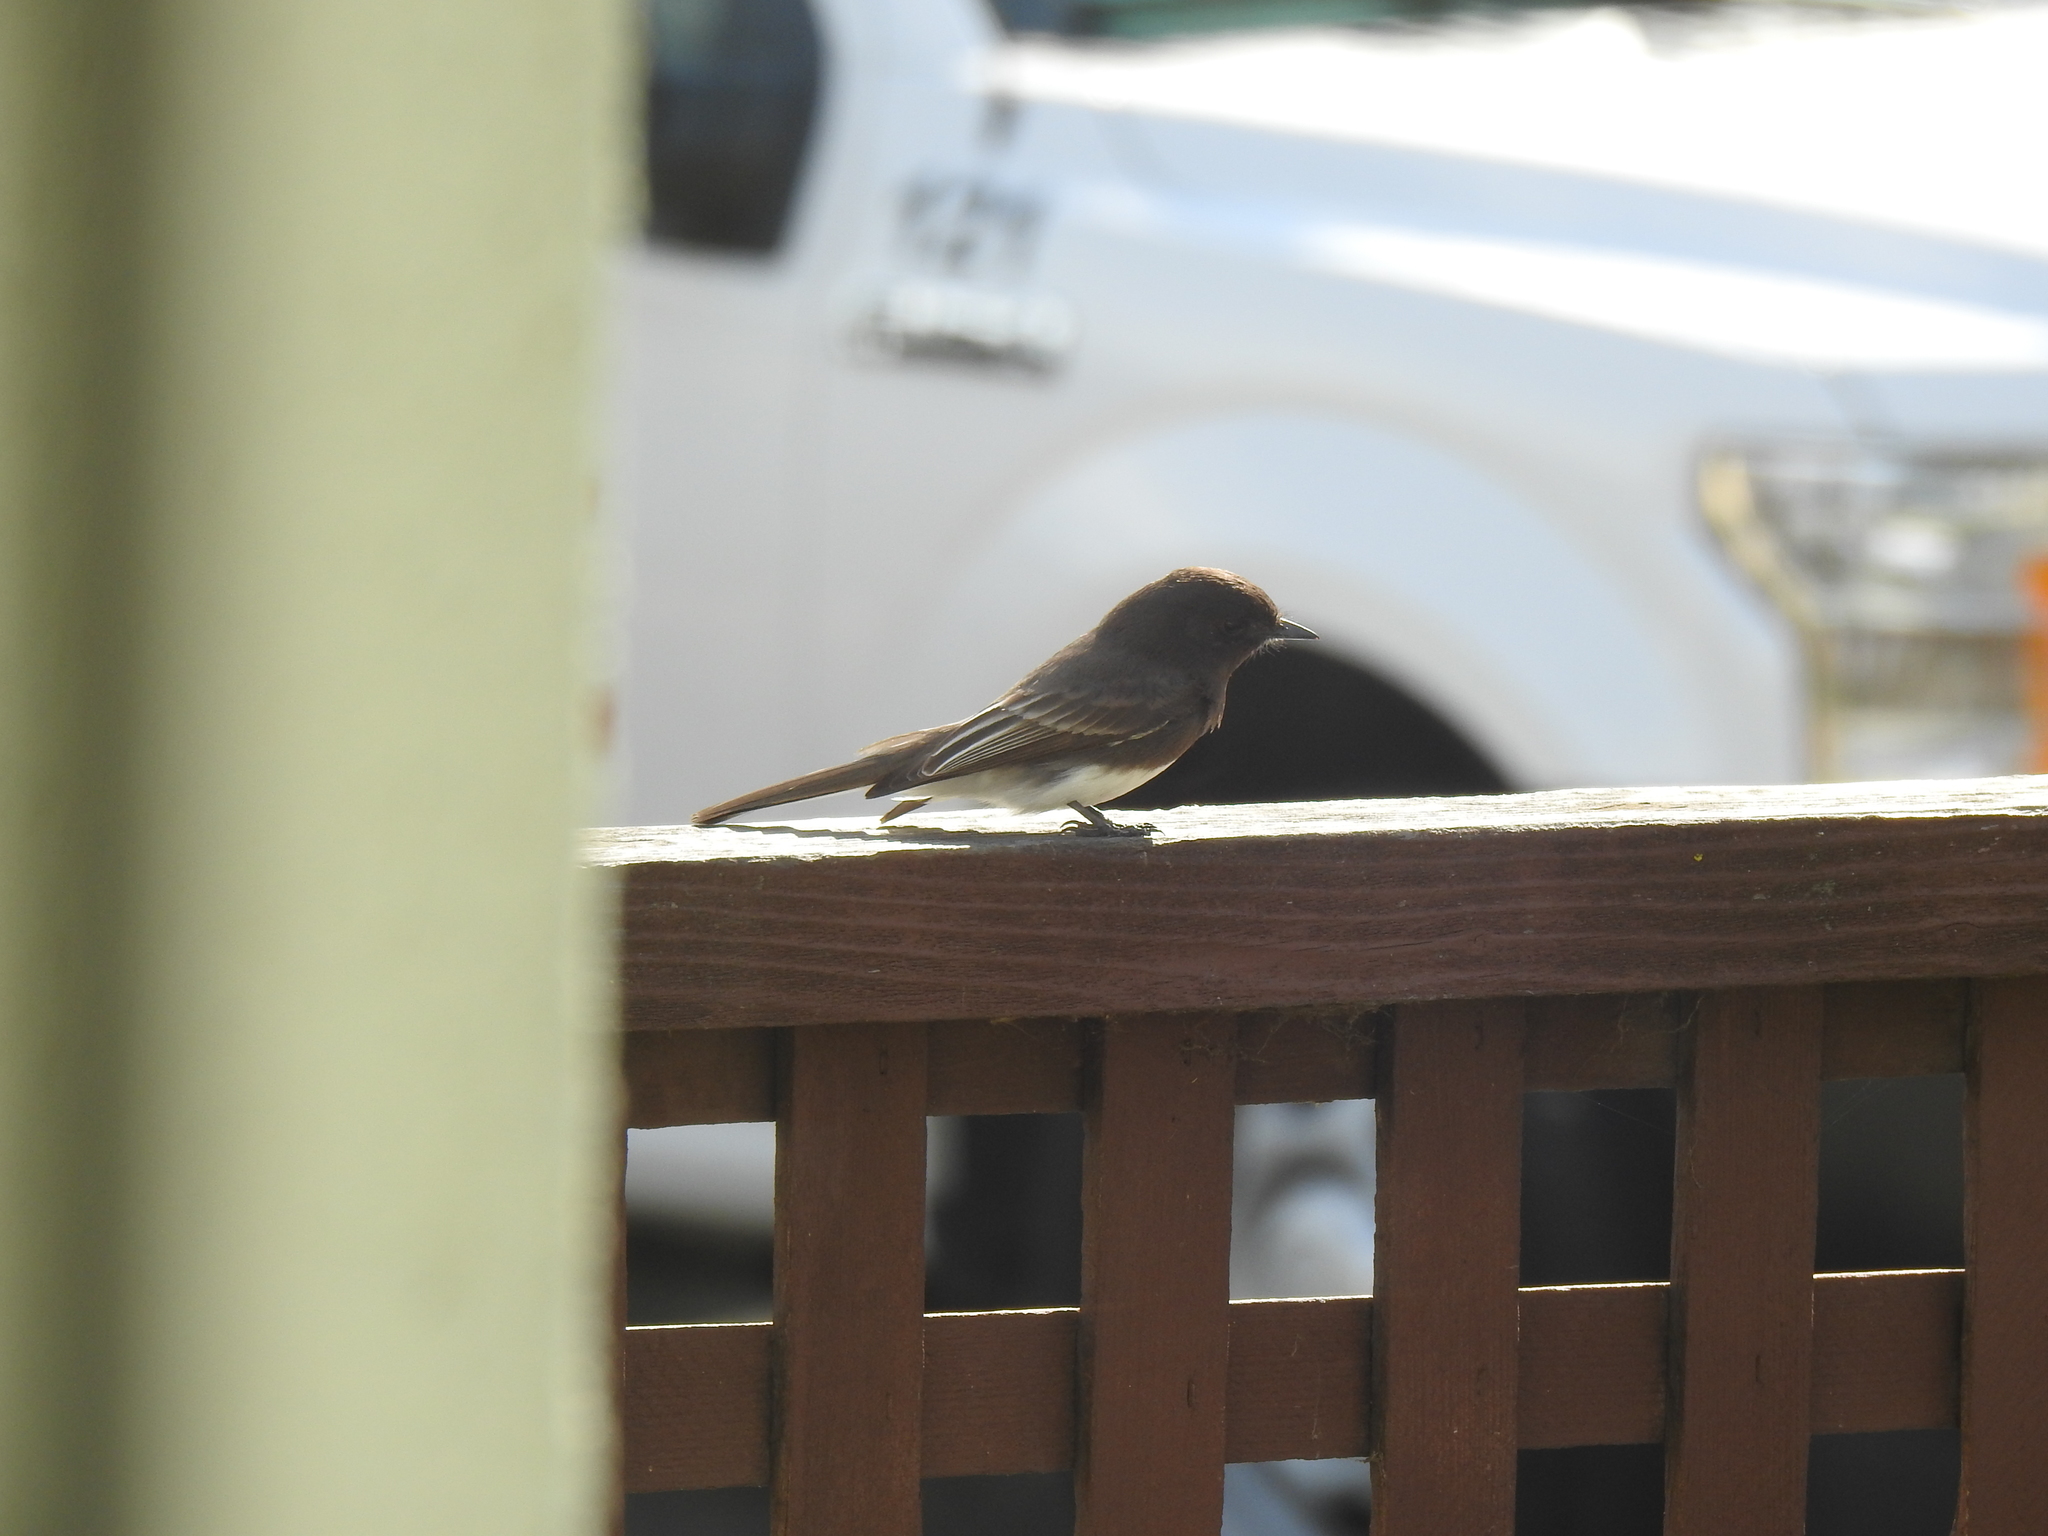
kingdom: Animalia
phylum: Chordata
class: Aves
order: Passeriformes
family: Tyrannidae
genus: Sayornis
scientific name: Sayornis nigricans
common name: Black phoebe
